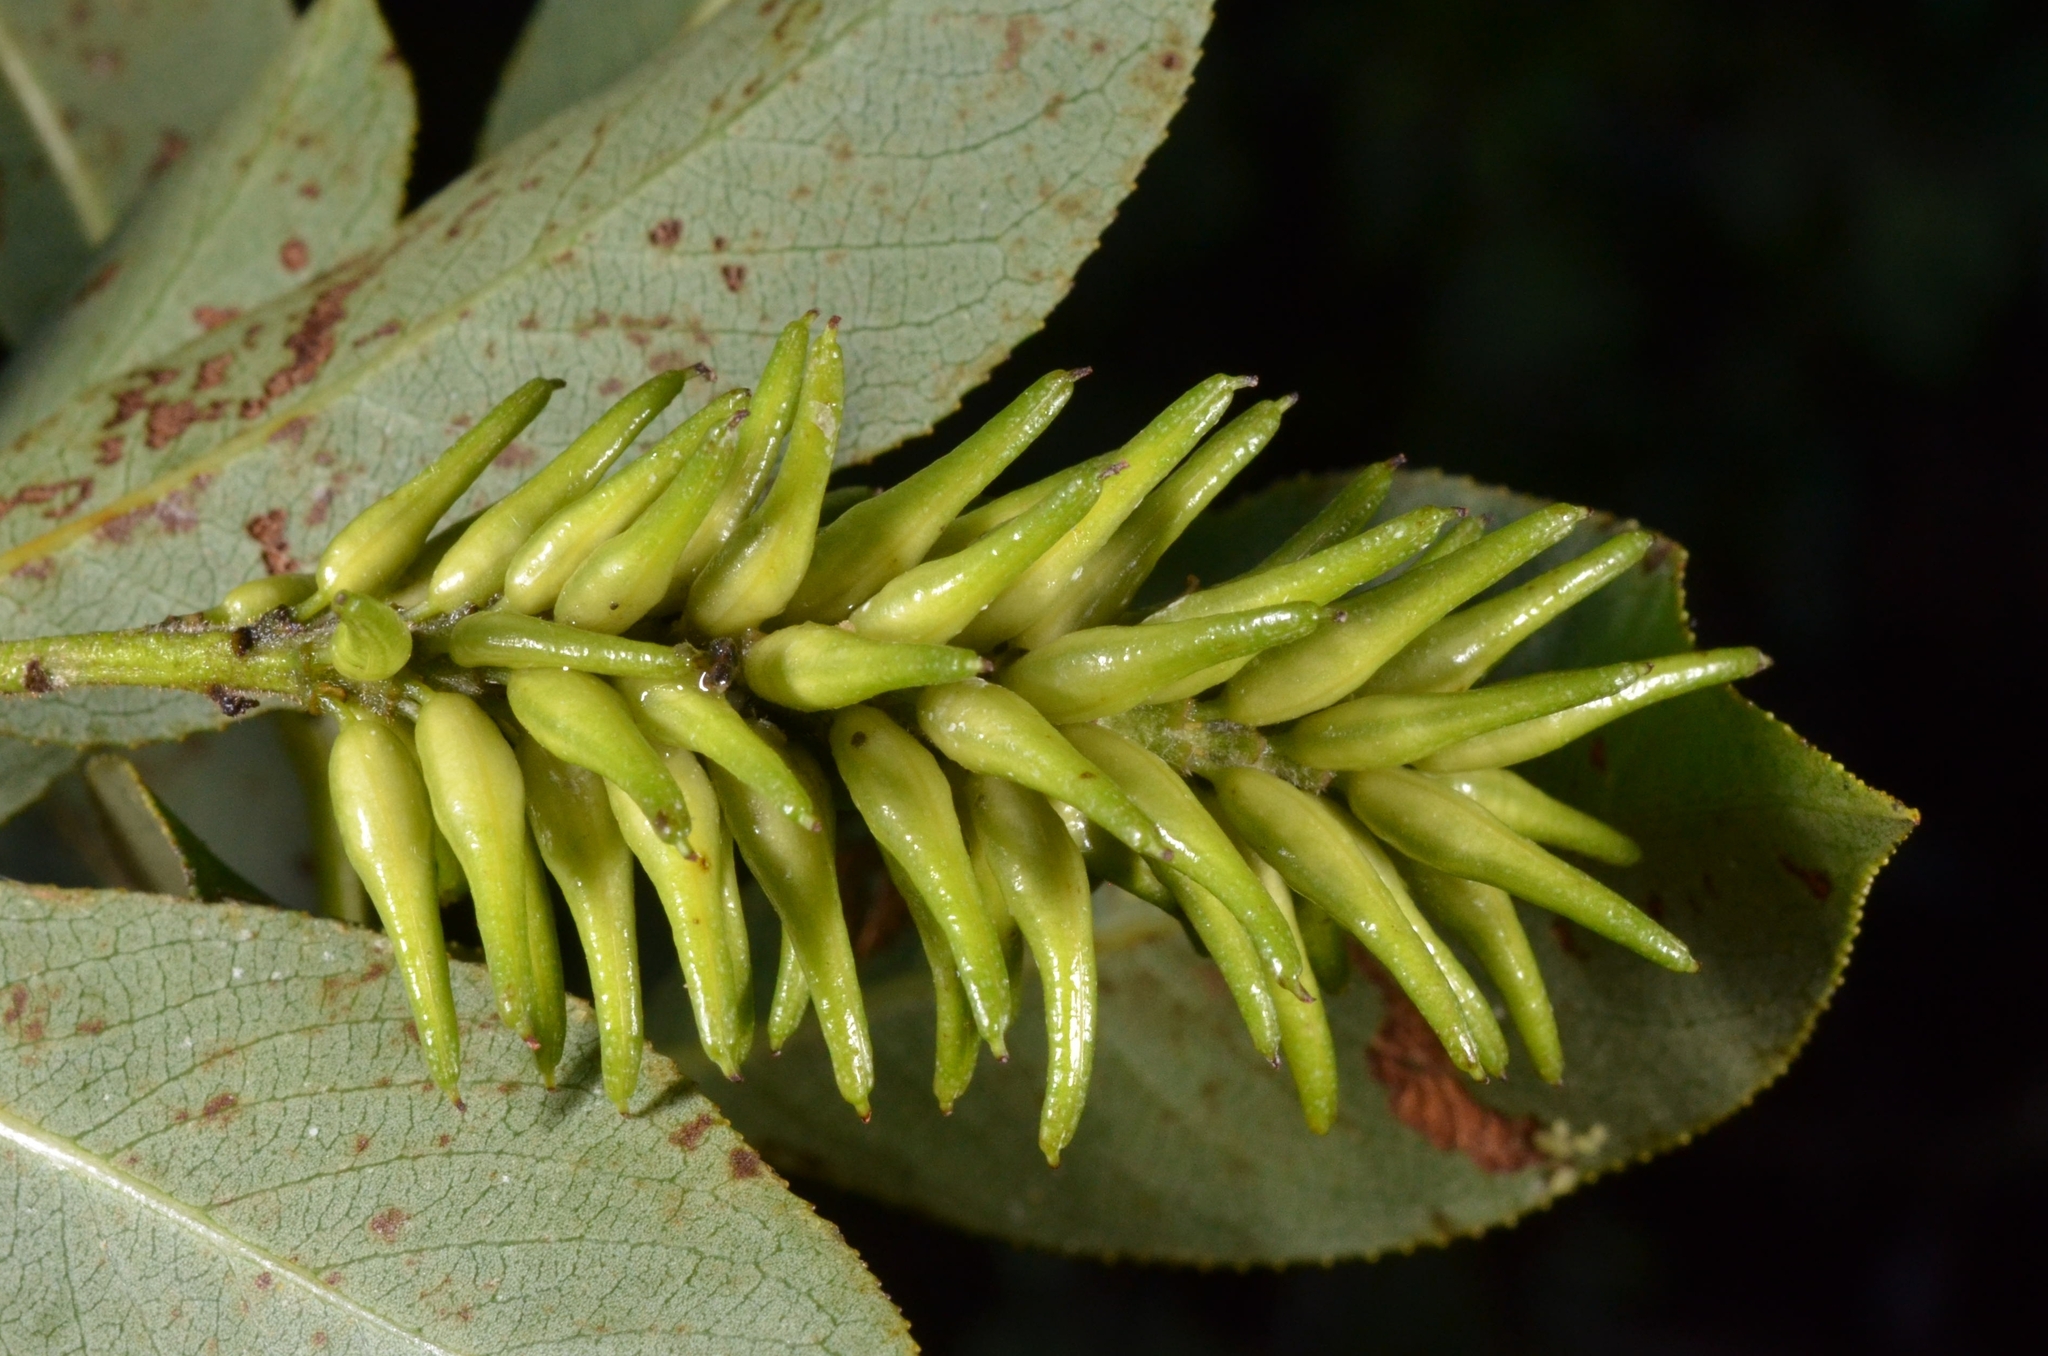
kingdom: Plantae
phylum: Tracheophyta
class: Magnoliopsida
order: Malpighiales
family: Salicaceae
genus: Salix
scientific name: Salix pentandra
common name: Bay willow
